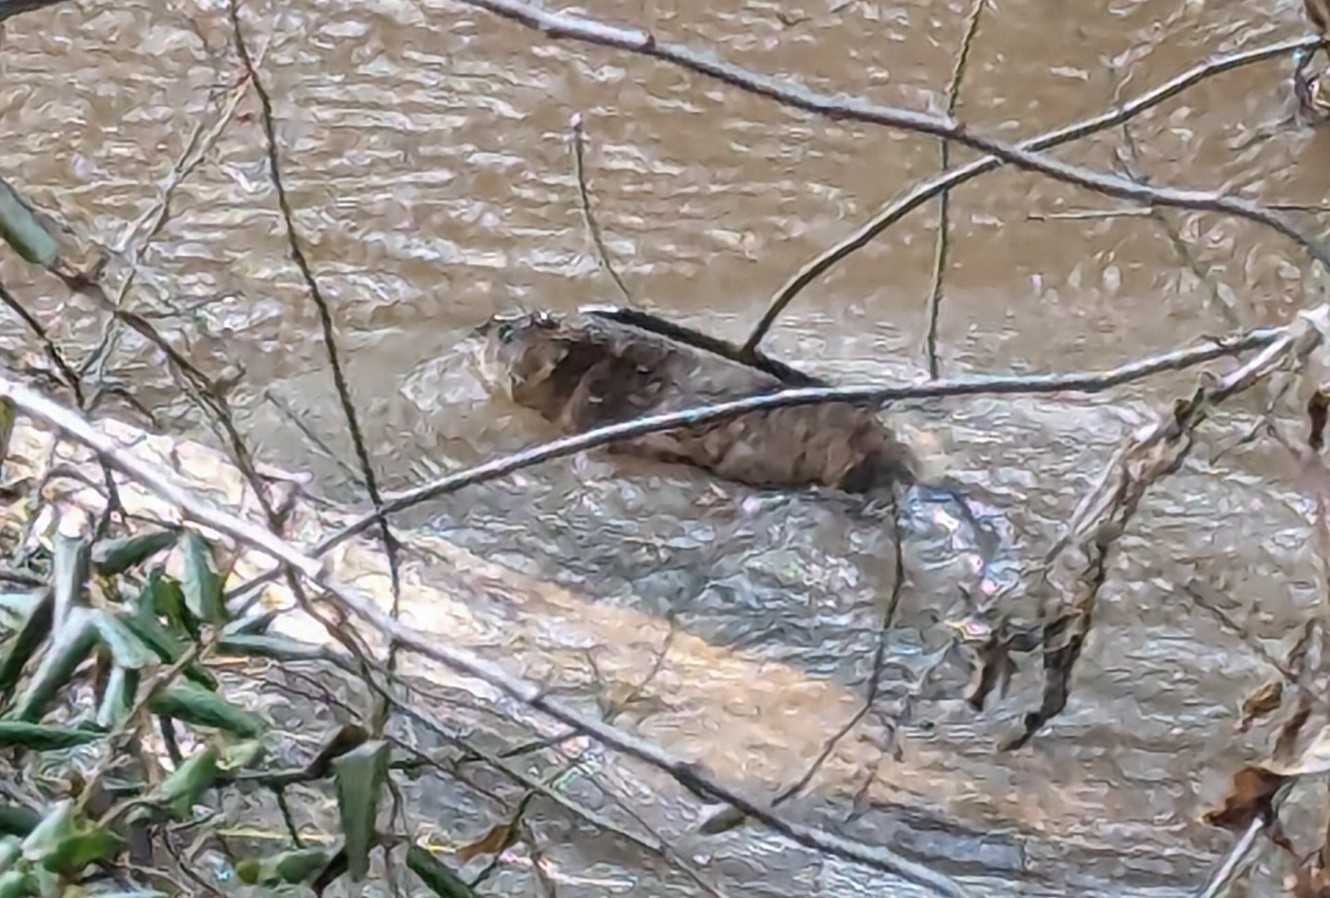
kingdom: Animalia
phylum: Chordata
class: Mammalia
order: Rodentia
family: Cricetidae
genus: Ondatra
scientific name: Ondatra zibethicus
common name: Muskrat
